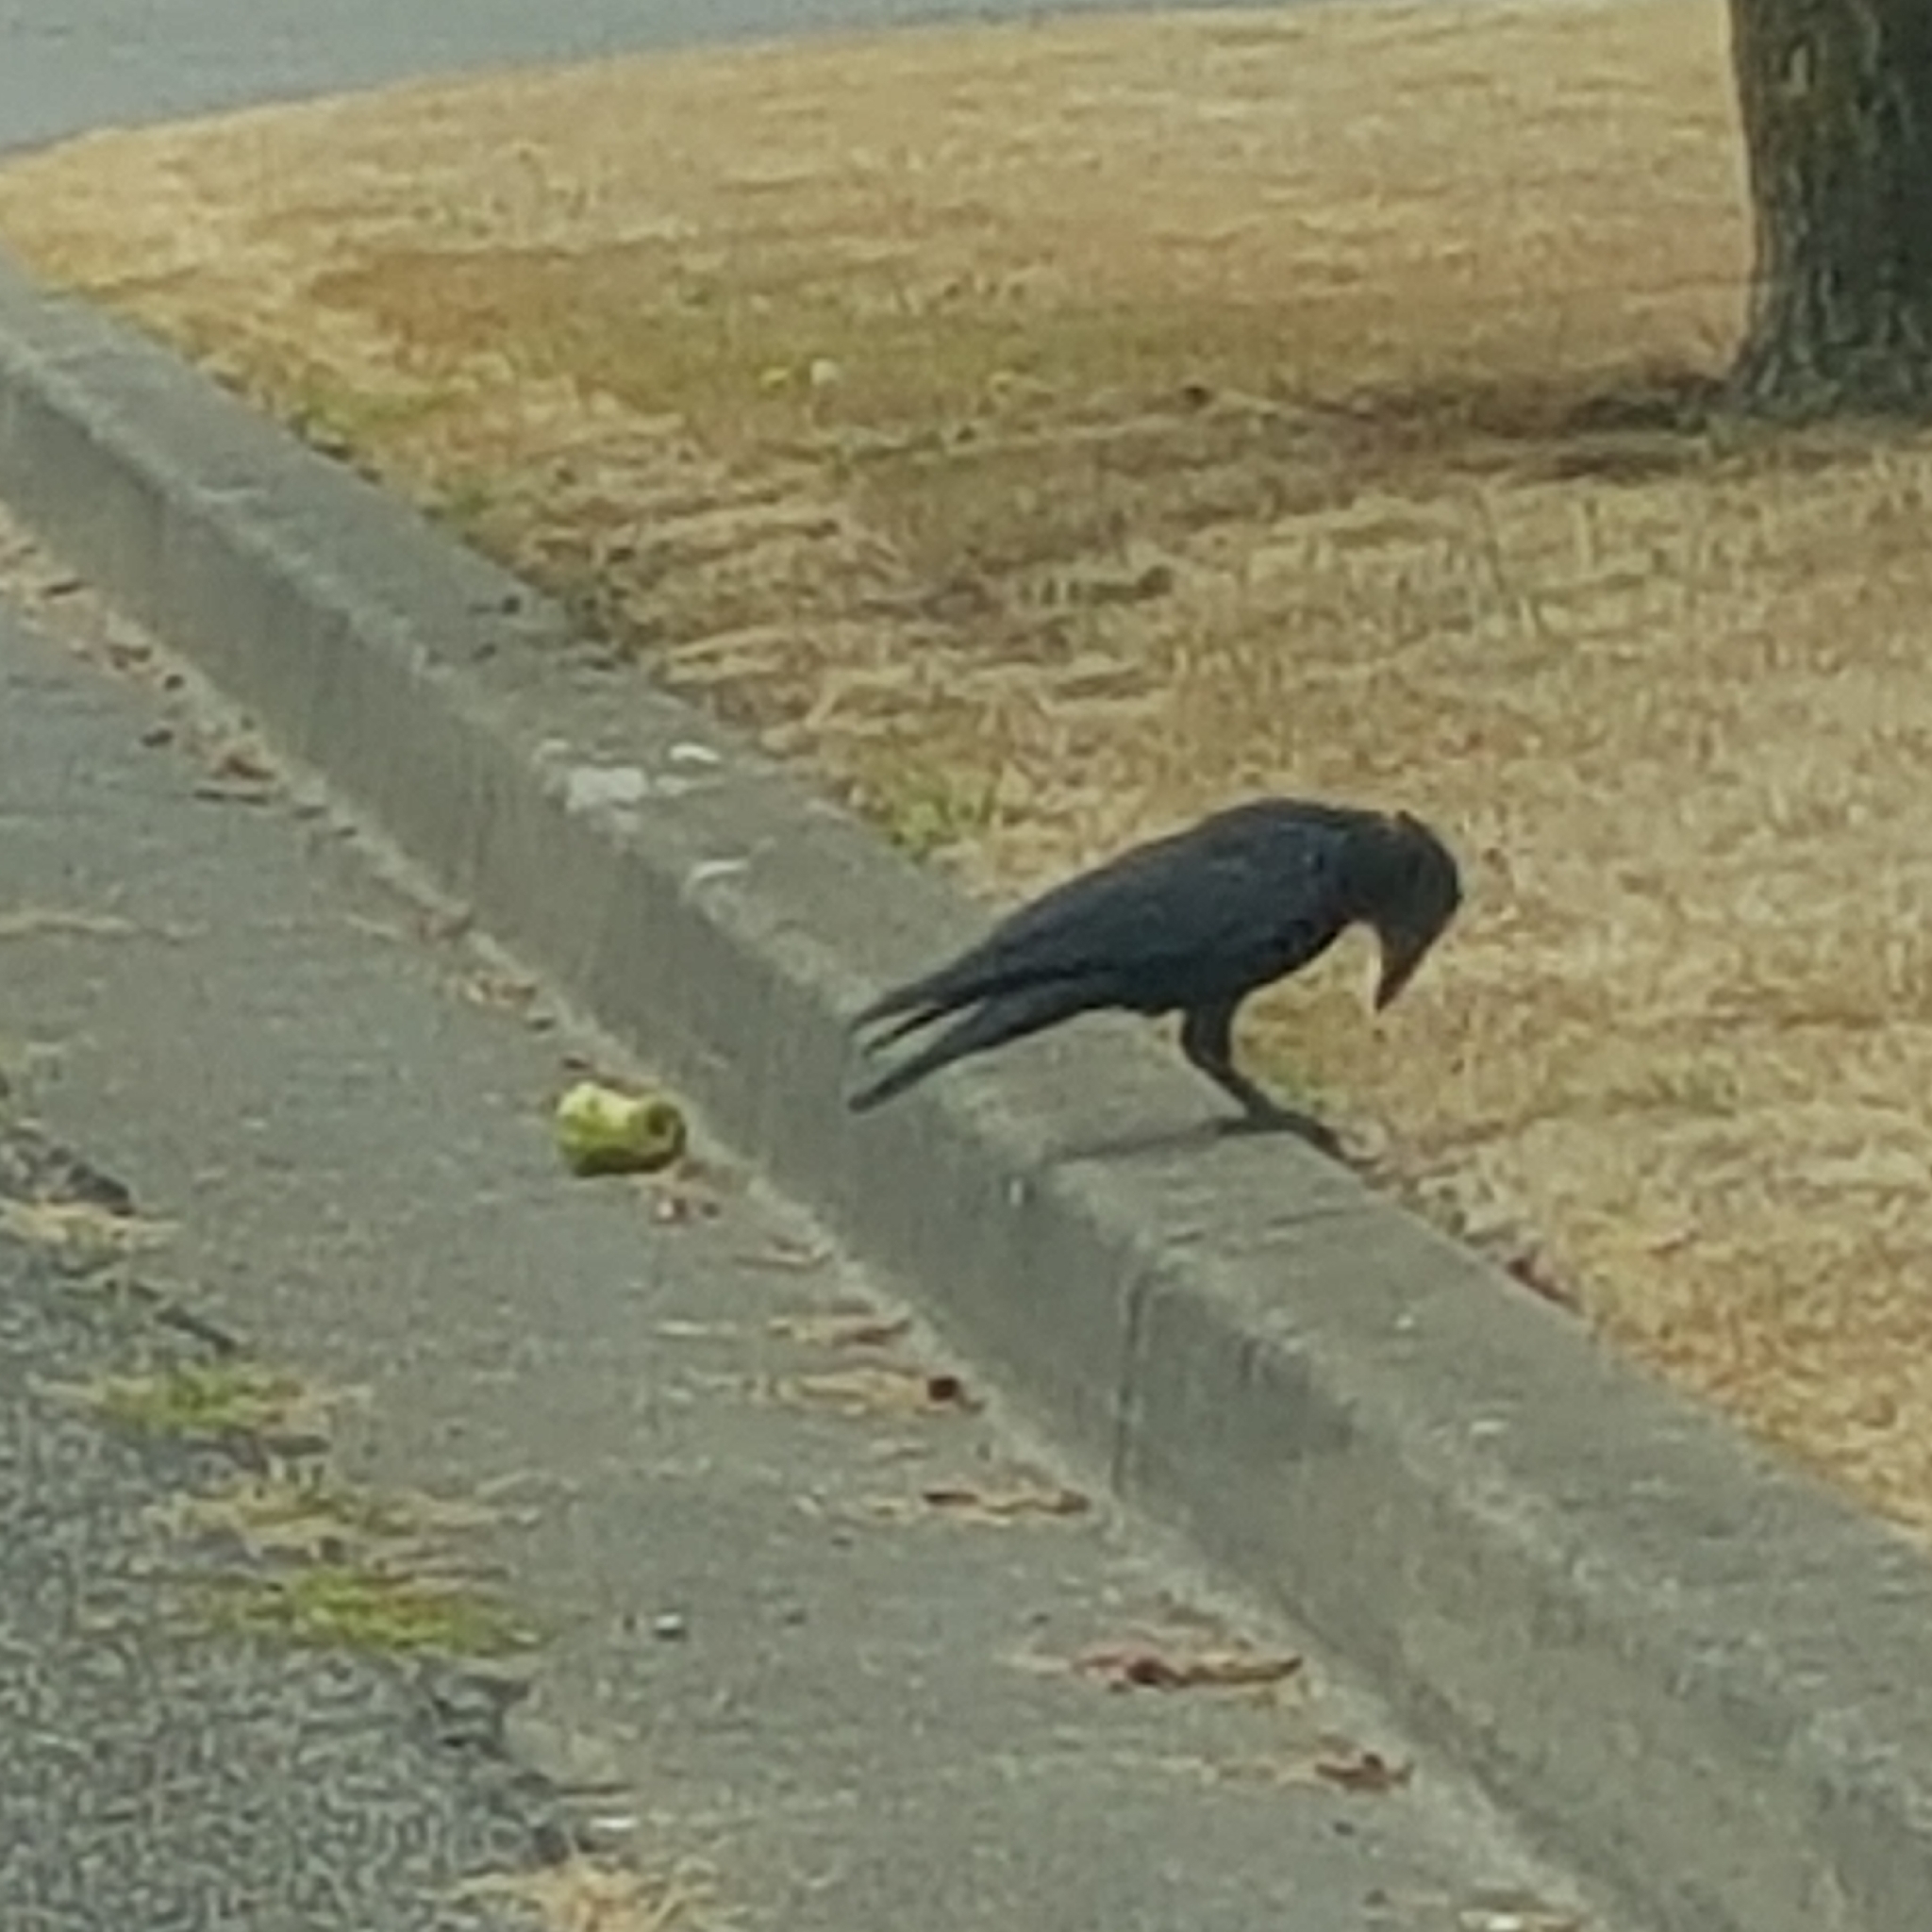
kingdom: Animalia
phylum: Chordata
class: Aves
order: Passeriformes
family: Corvidae
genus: Corvus
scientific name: Corvus brachyrhynchos
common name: American crow
